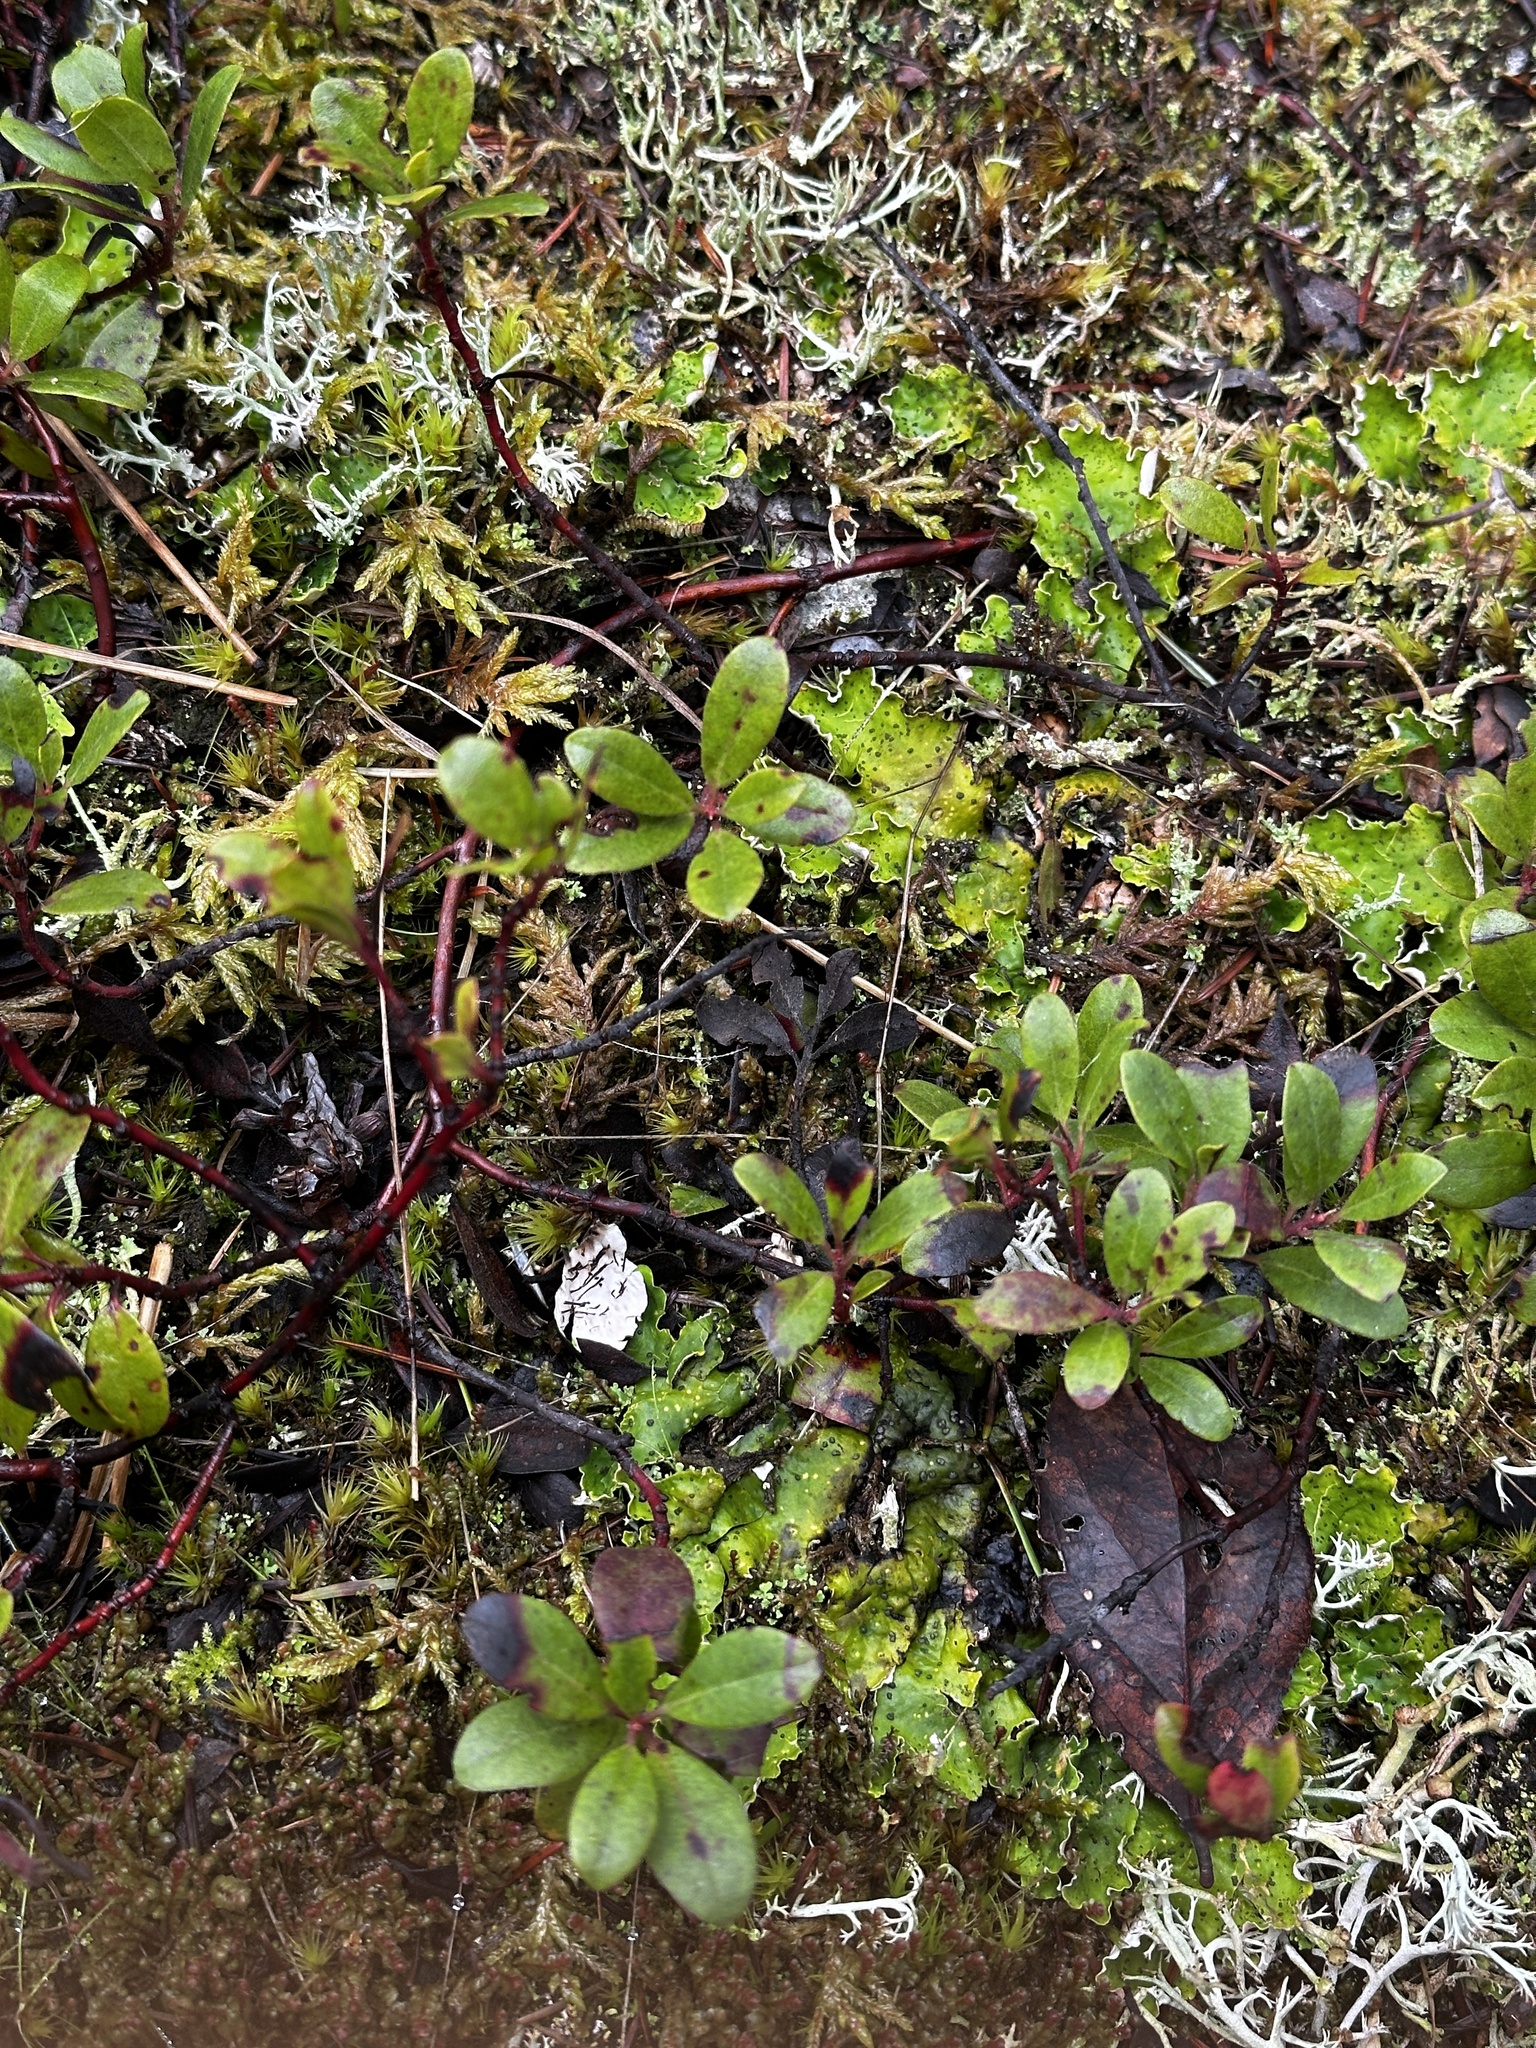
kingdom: Plantae
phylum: Tracheophyta
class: Magnoliopsida
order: Ericales
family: Ericaceae
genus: Arctostaphylos
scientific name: Arctostaphylos uva-ursi
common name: Bearberry
